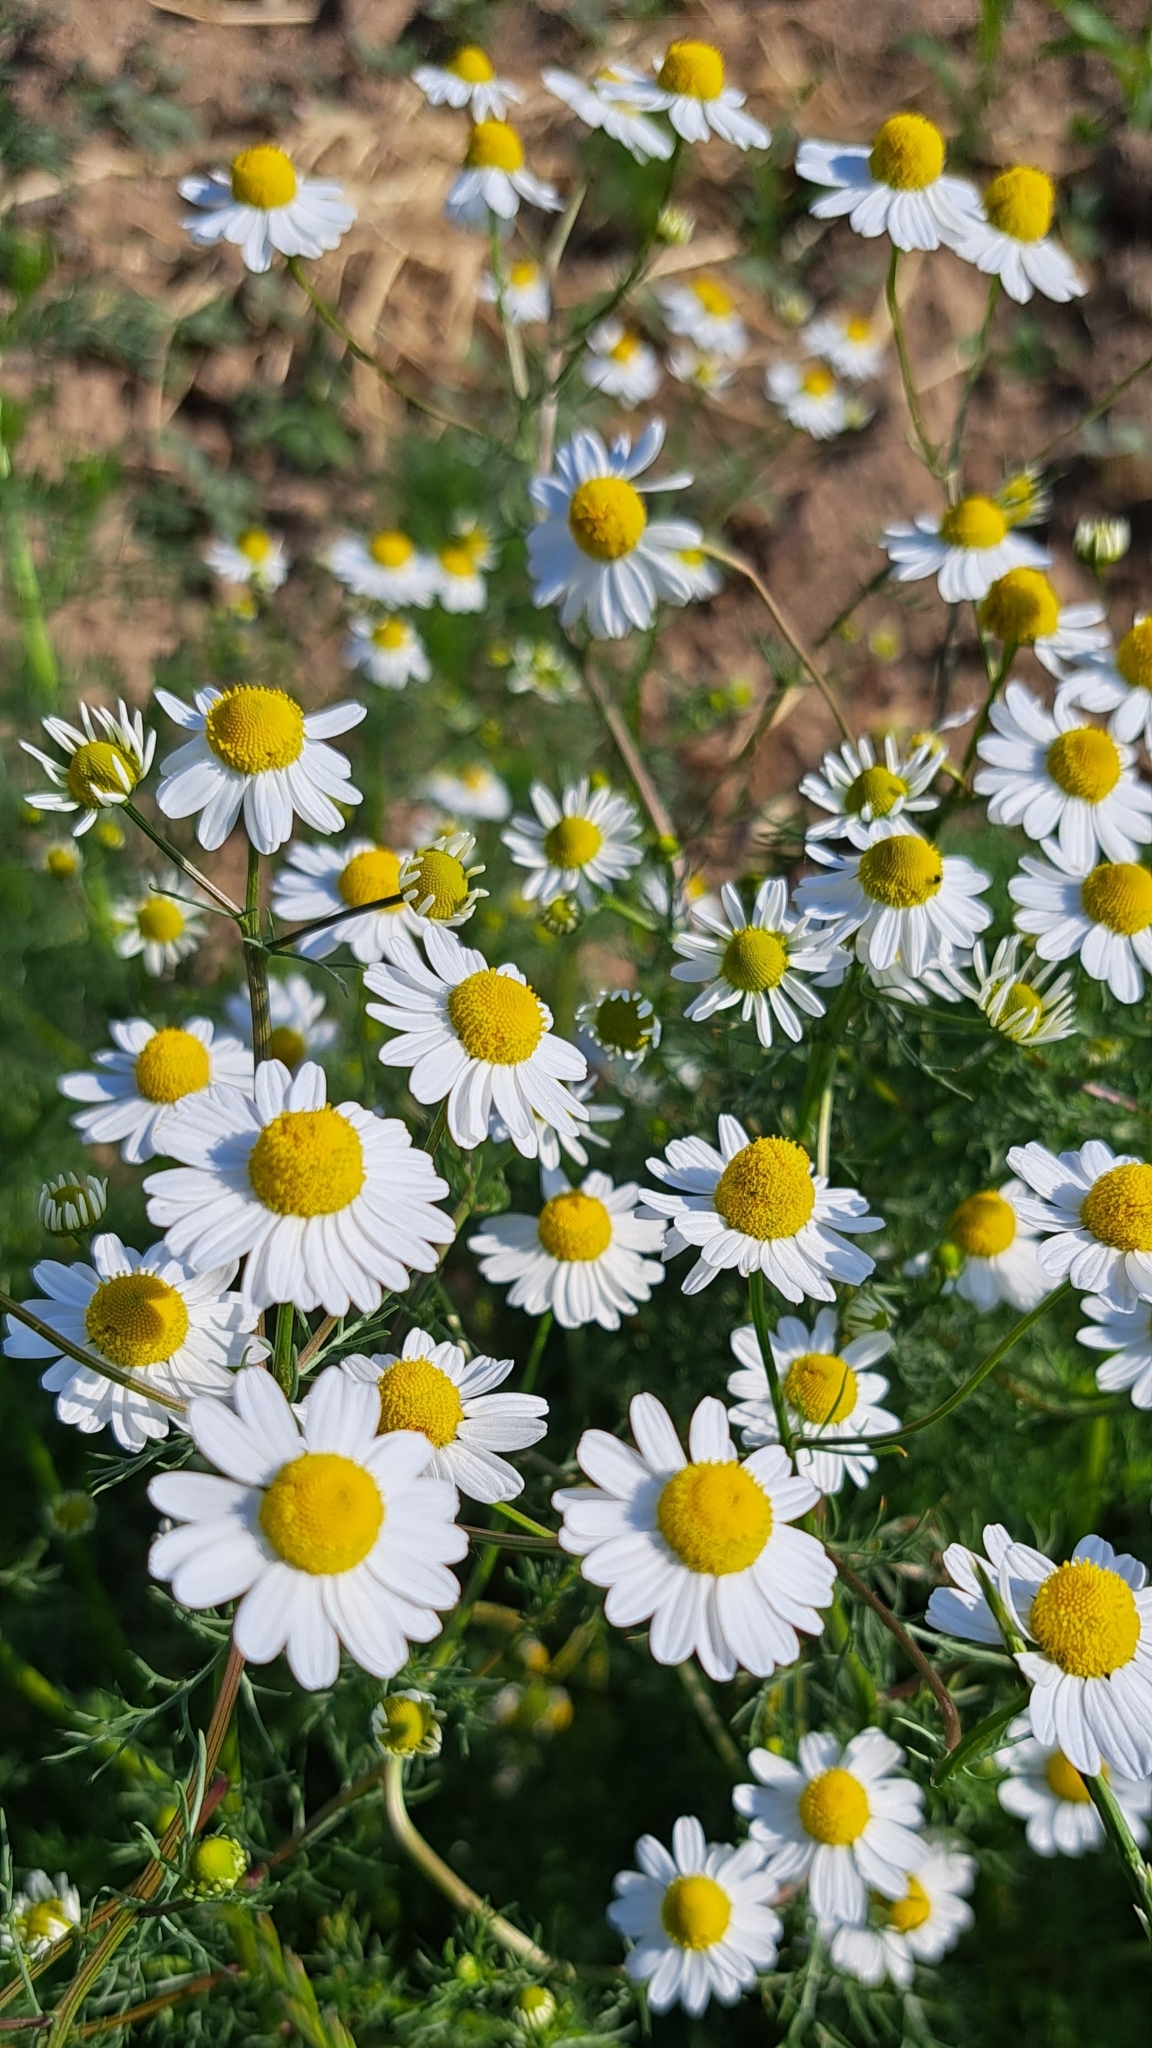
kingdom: Plantae
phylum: Tracheophyta
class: Magnoliopsida
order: Asterales
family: Asteraceae
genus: Matricaria
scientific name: Matricaria chamomilla
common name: Scented mayweed
